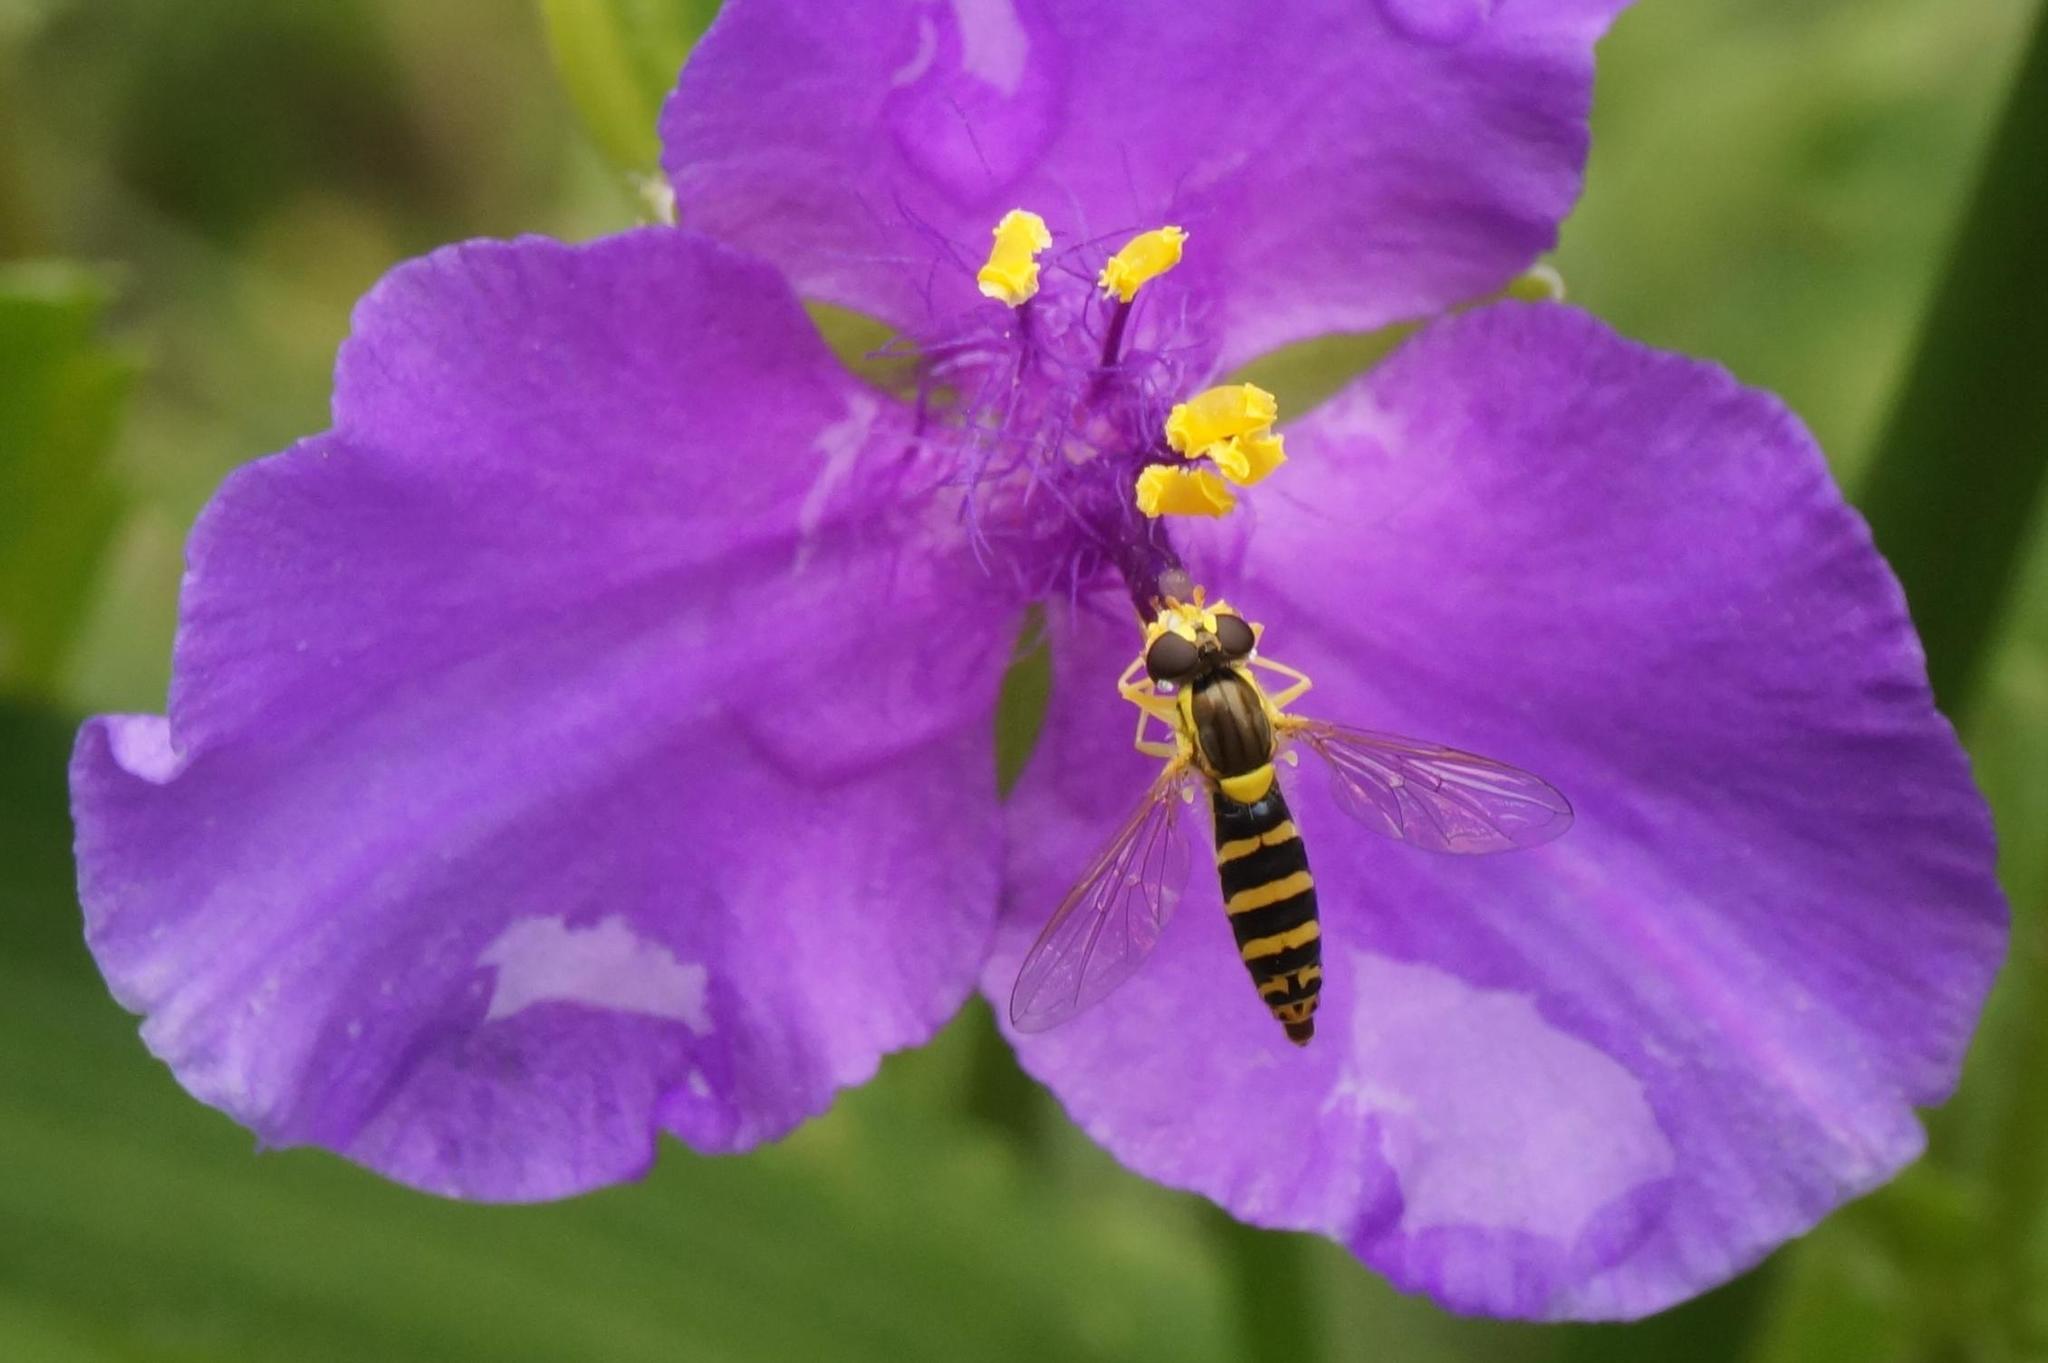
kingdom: Animalia
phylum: Arthropoda
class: Insecta
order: Diptera
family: Syrphidae
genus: Sphaerophoria
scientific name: Sphaerophoria
